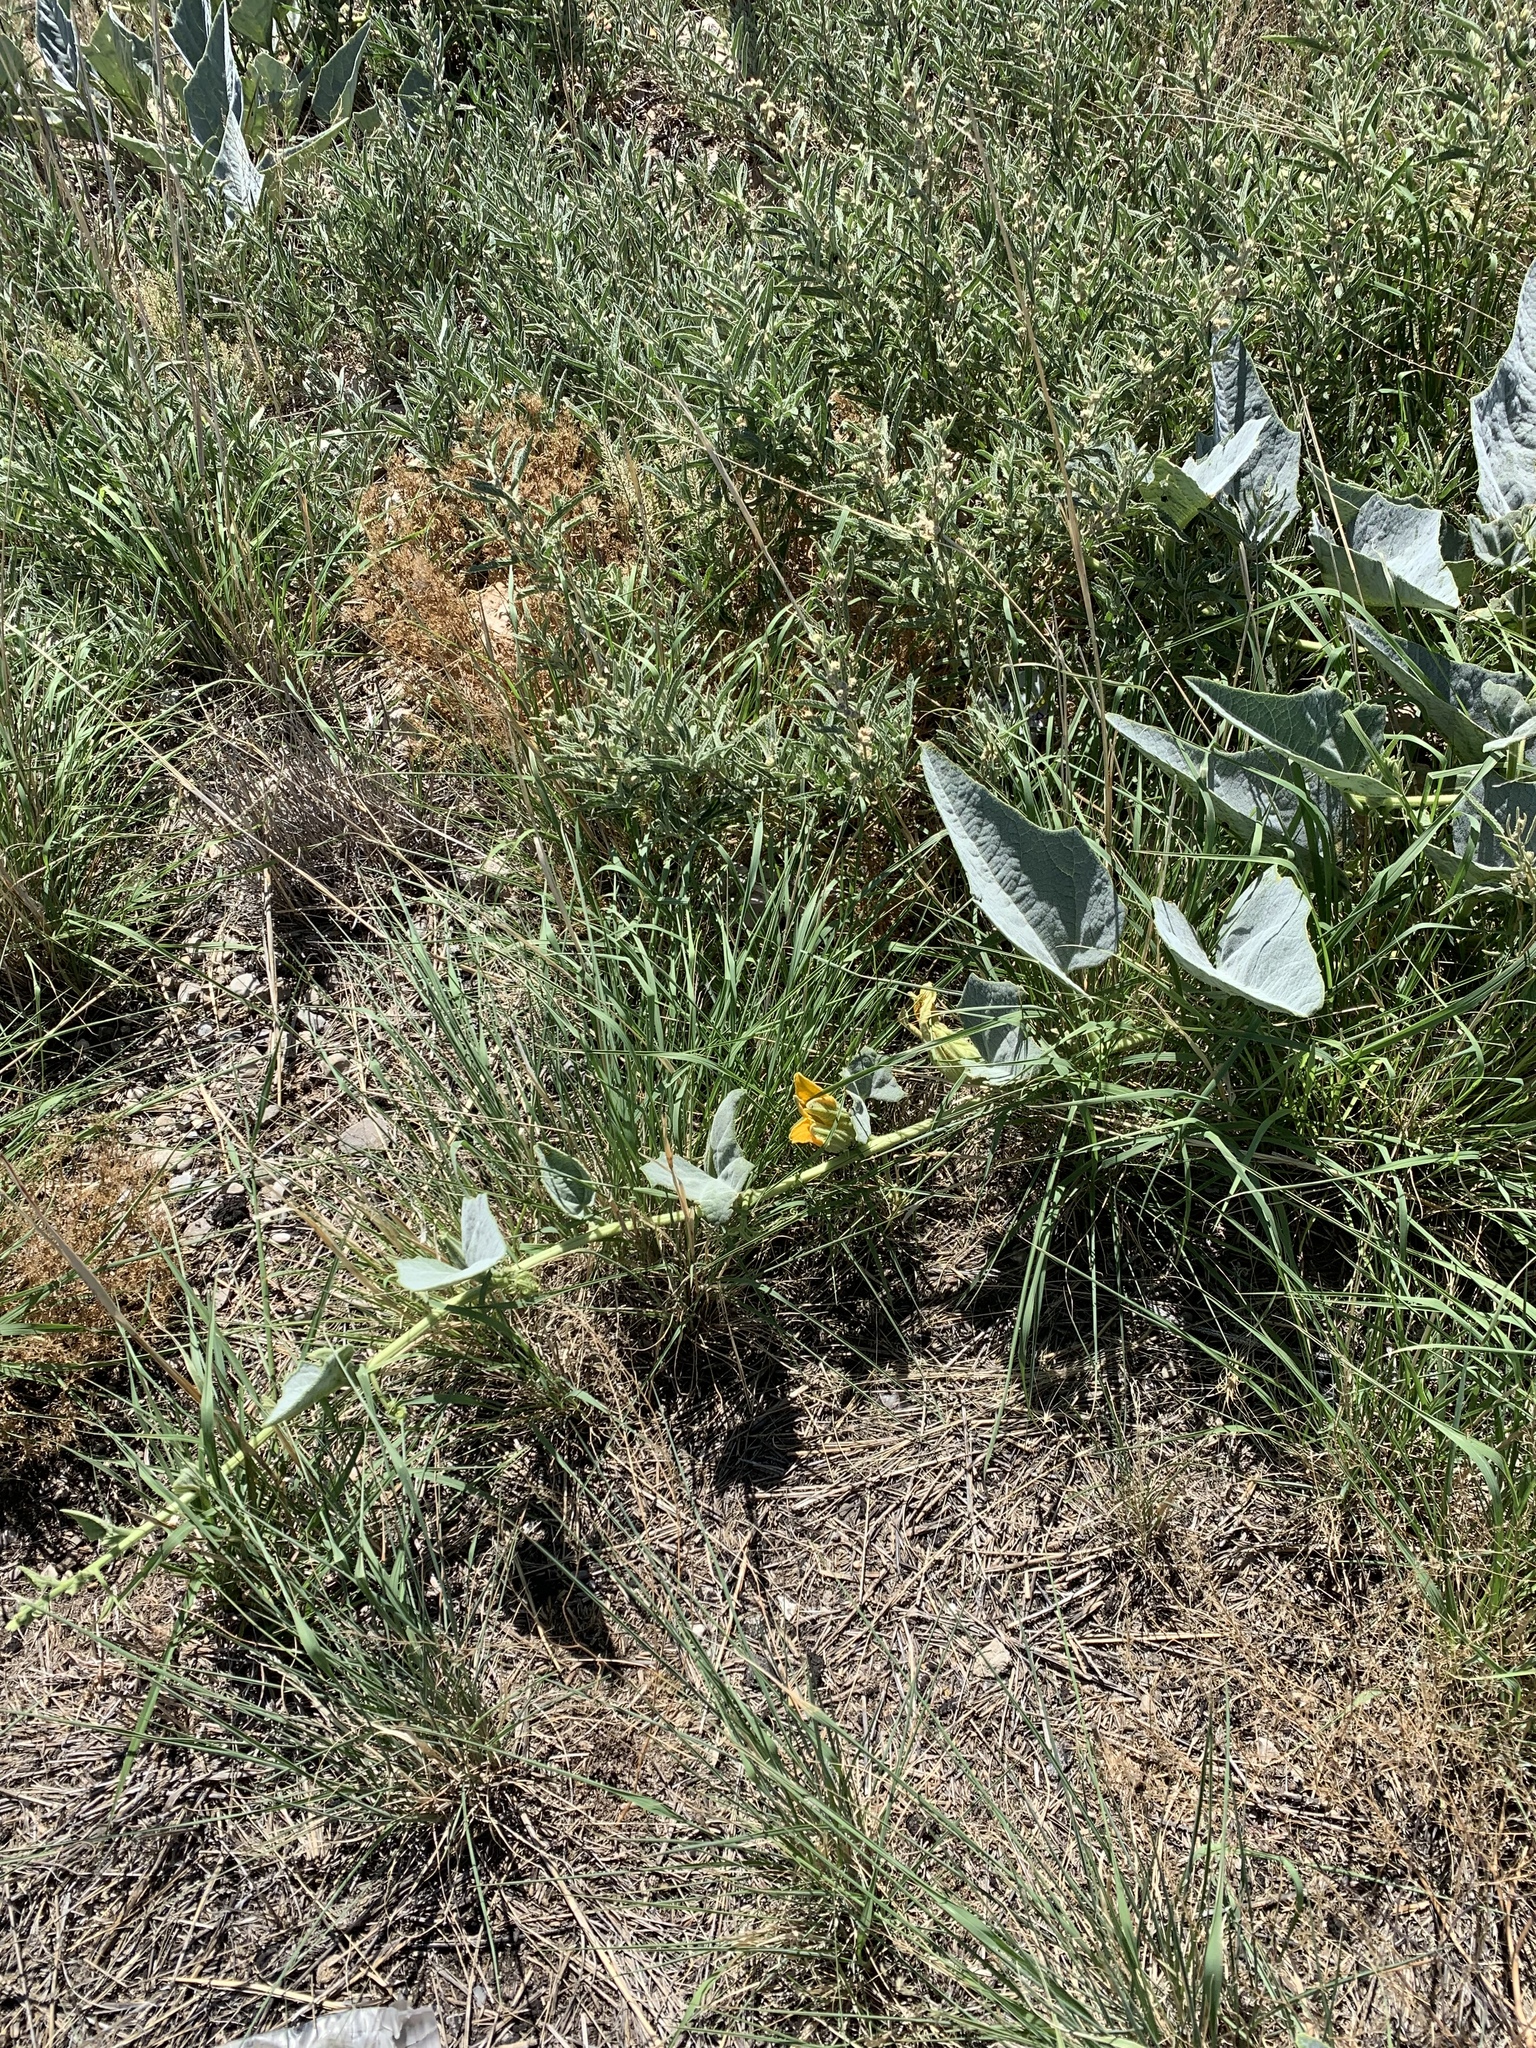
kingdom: Plantae
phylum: Tracheophyta
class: Magnoliopsida
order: Cucurbitales
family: Cucurbitaceae
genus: Cucurbita
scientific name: Cucurbita foetidissima
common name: Buffalo gourd
